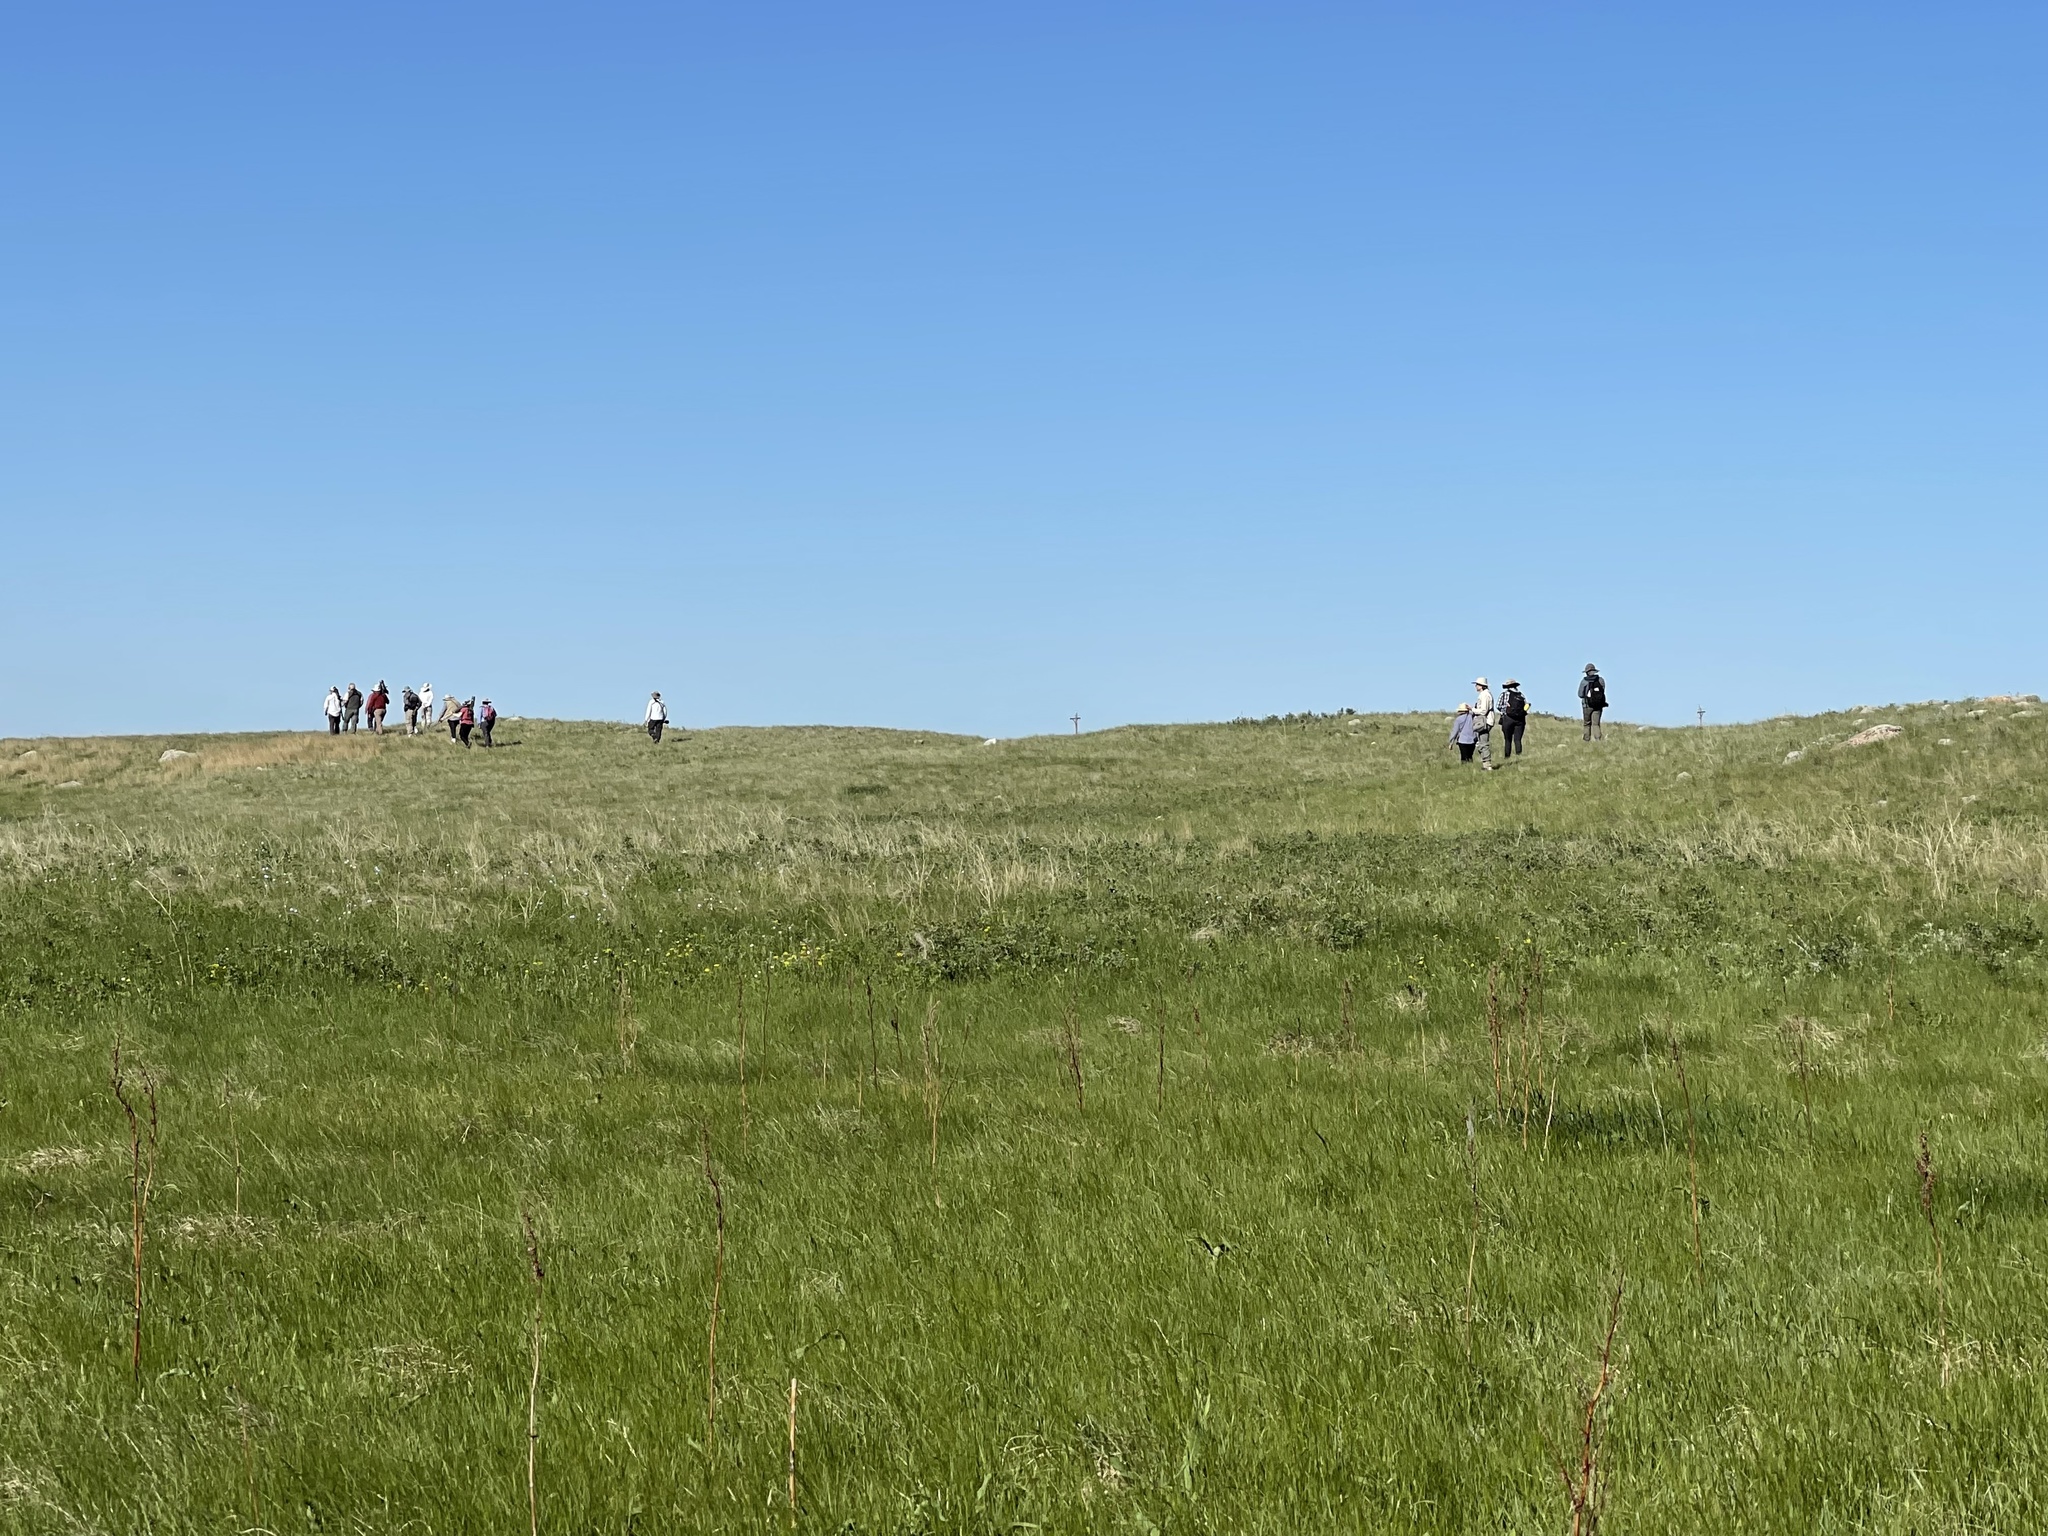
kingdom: Animalia
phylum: Chordata
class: Squamata
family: Colubridae
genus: Opheodrys
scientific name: Opheodrys vernalis
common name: Smooth green snake
